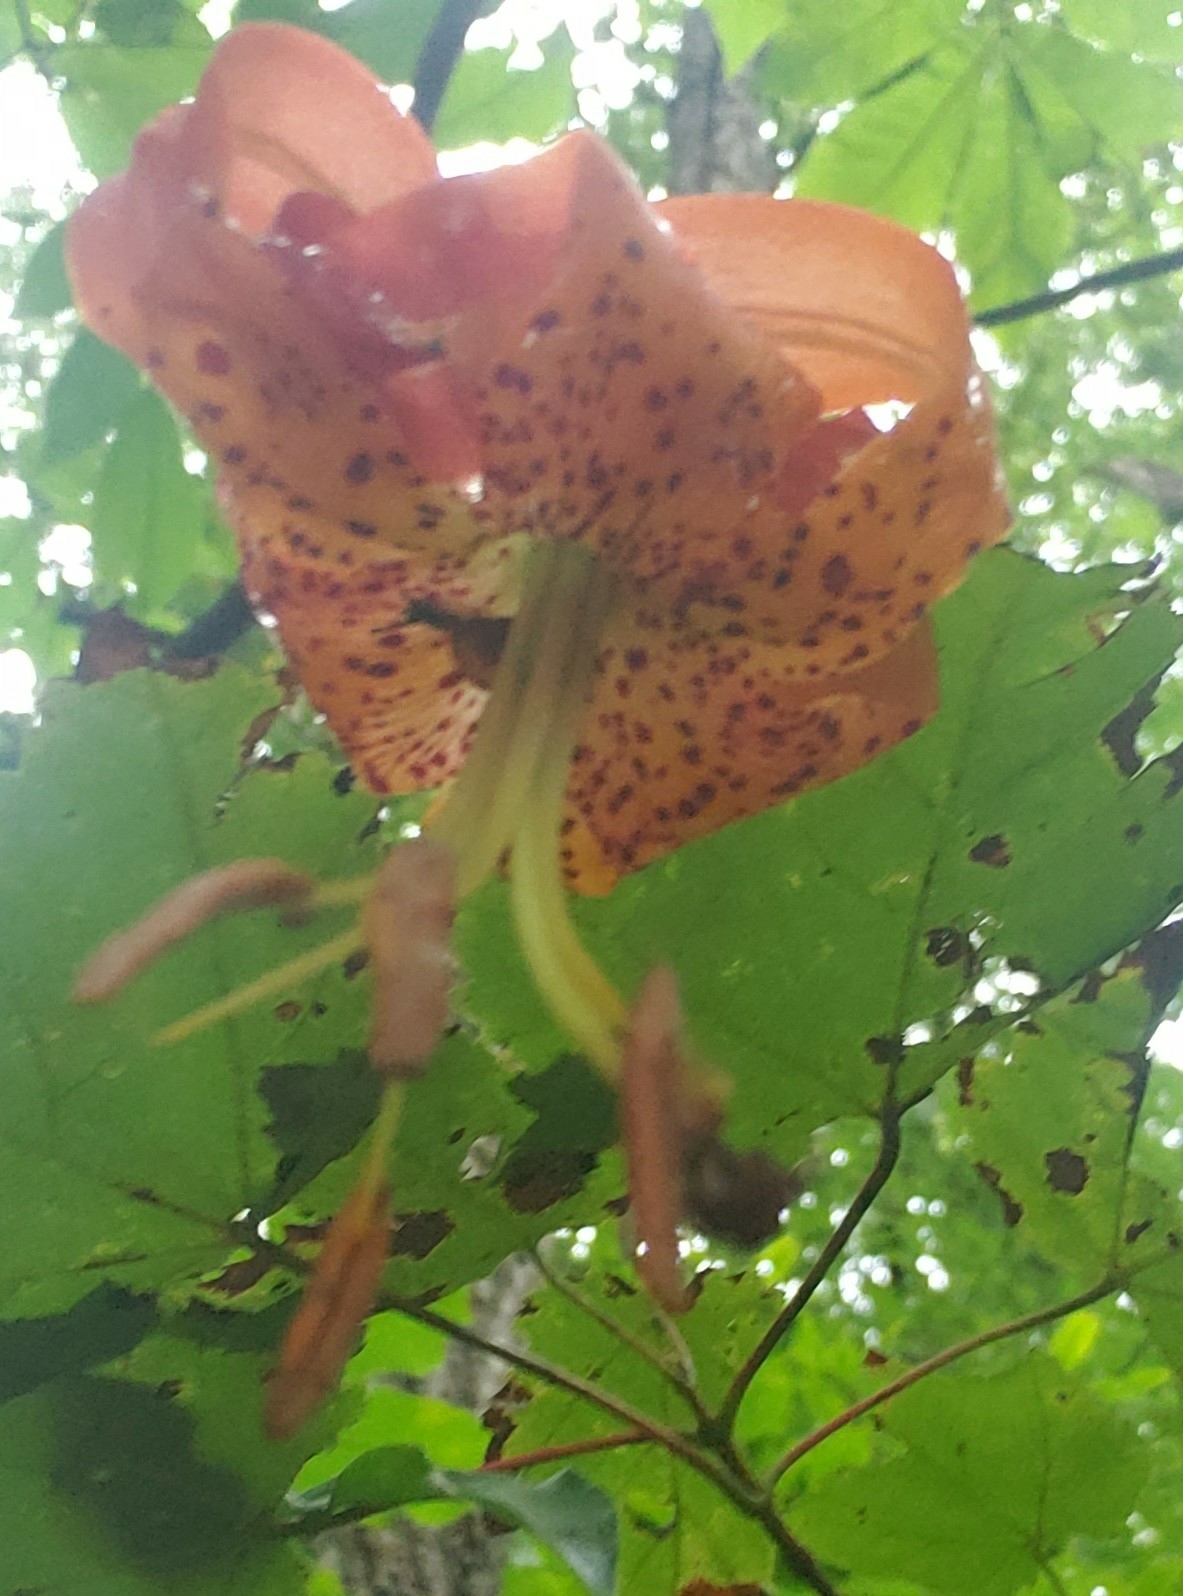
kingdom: Plantae
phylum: Tracheophyta
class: Liliopsida
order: Liliales
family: Liliaceae
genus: Lilium
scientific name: Lilium superbum
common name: American turk's-cap lily
